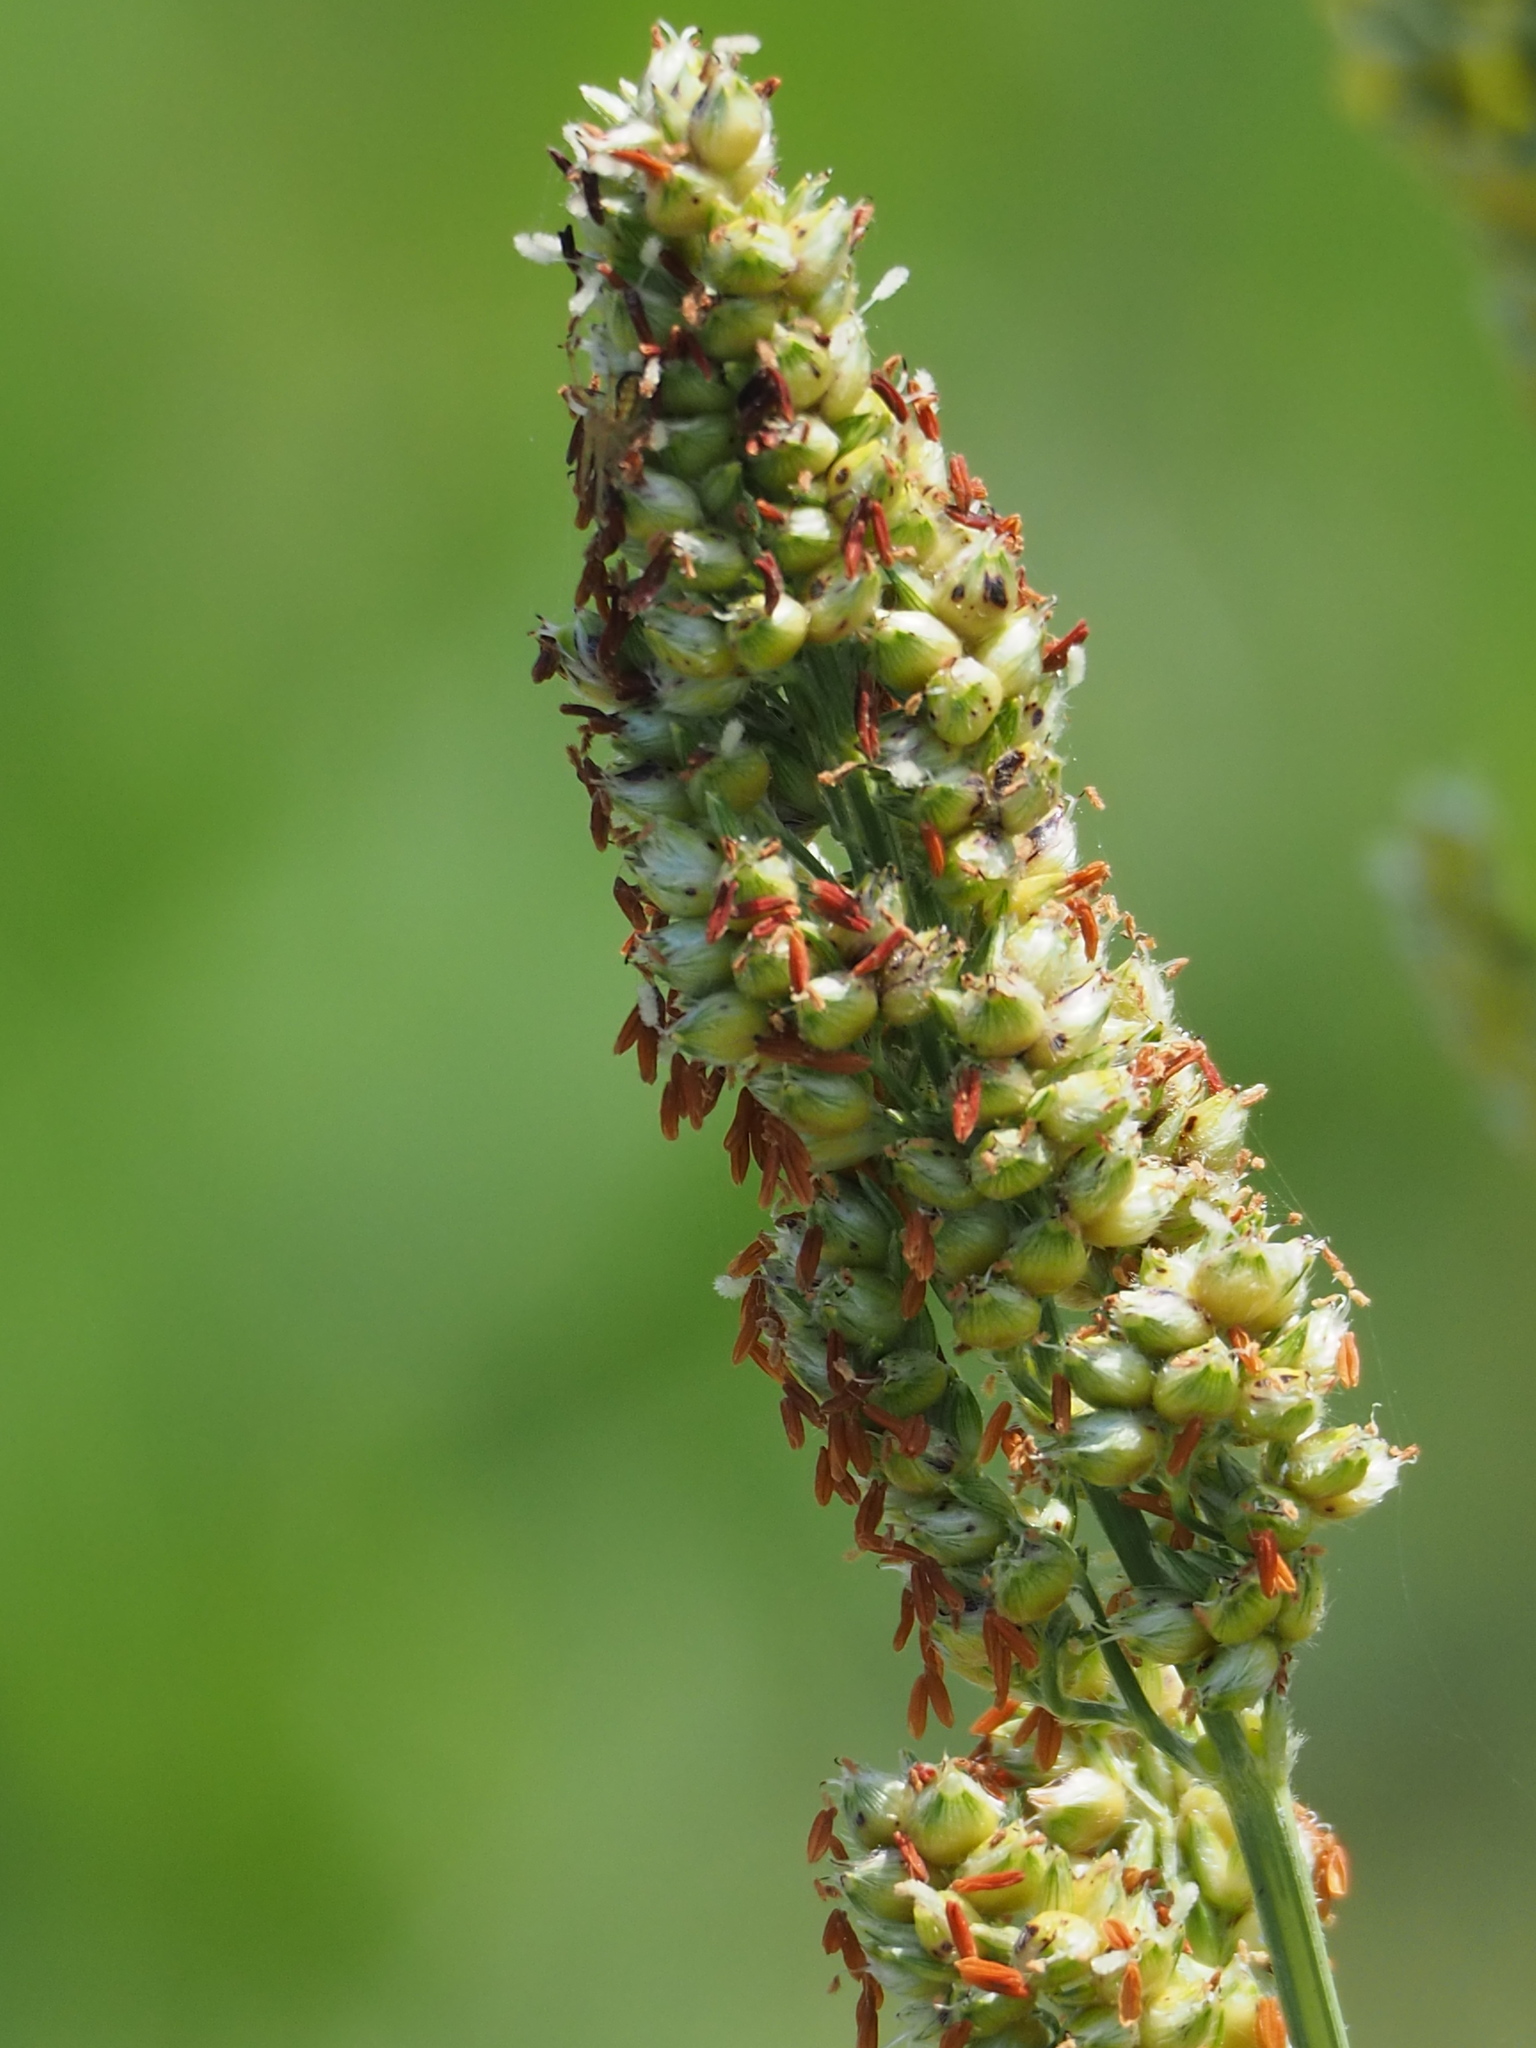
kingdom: Plantae
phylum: Tracheophyta
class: Liliopsida
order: Poales
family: Poaceae
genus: Sorghum
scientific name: Sorghum bicolor
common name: Sorghum
